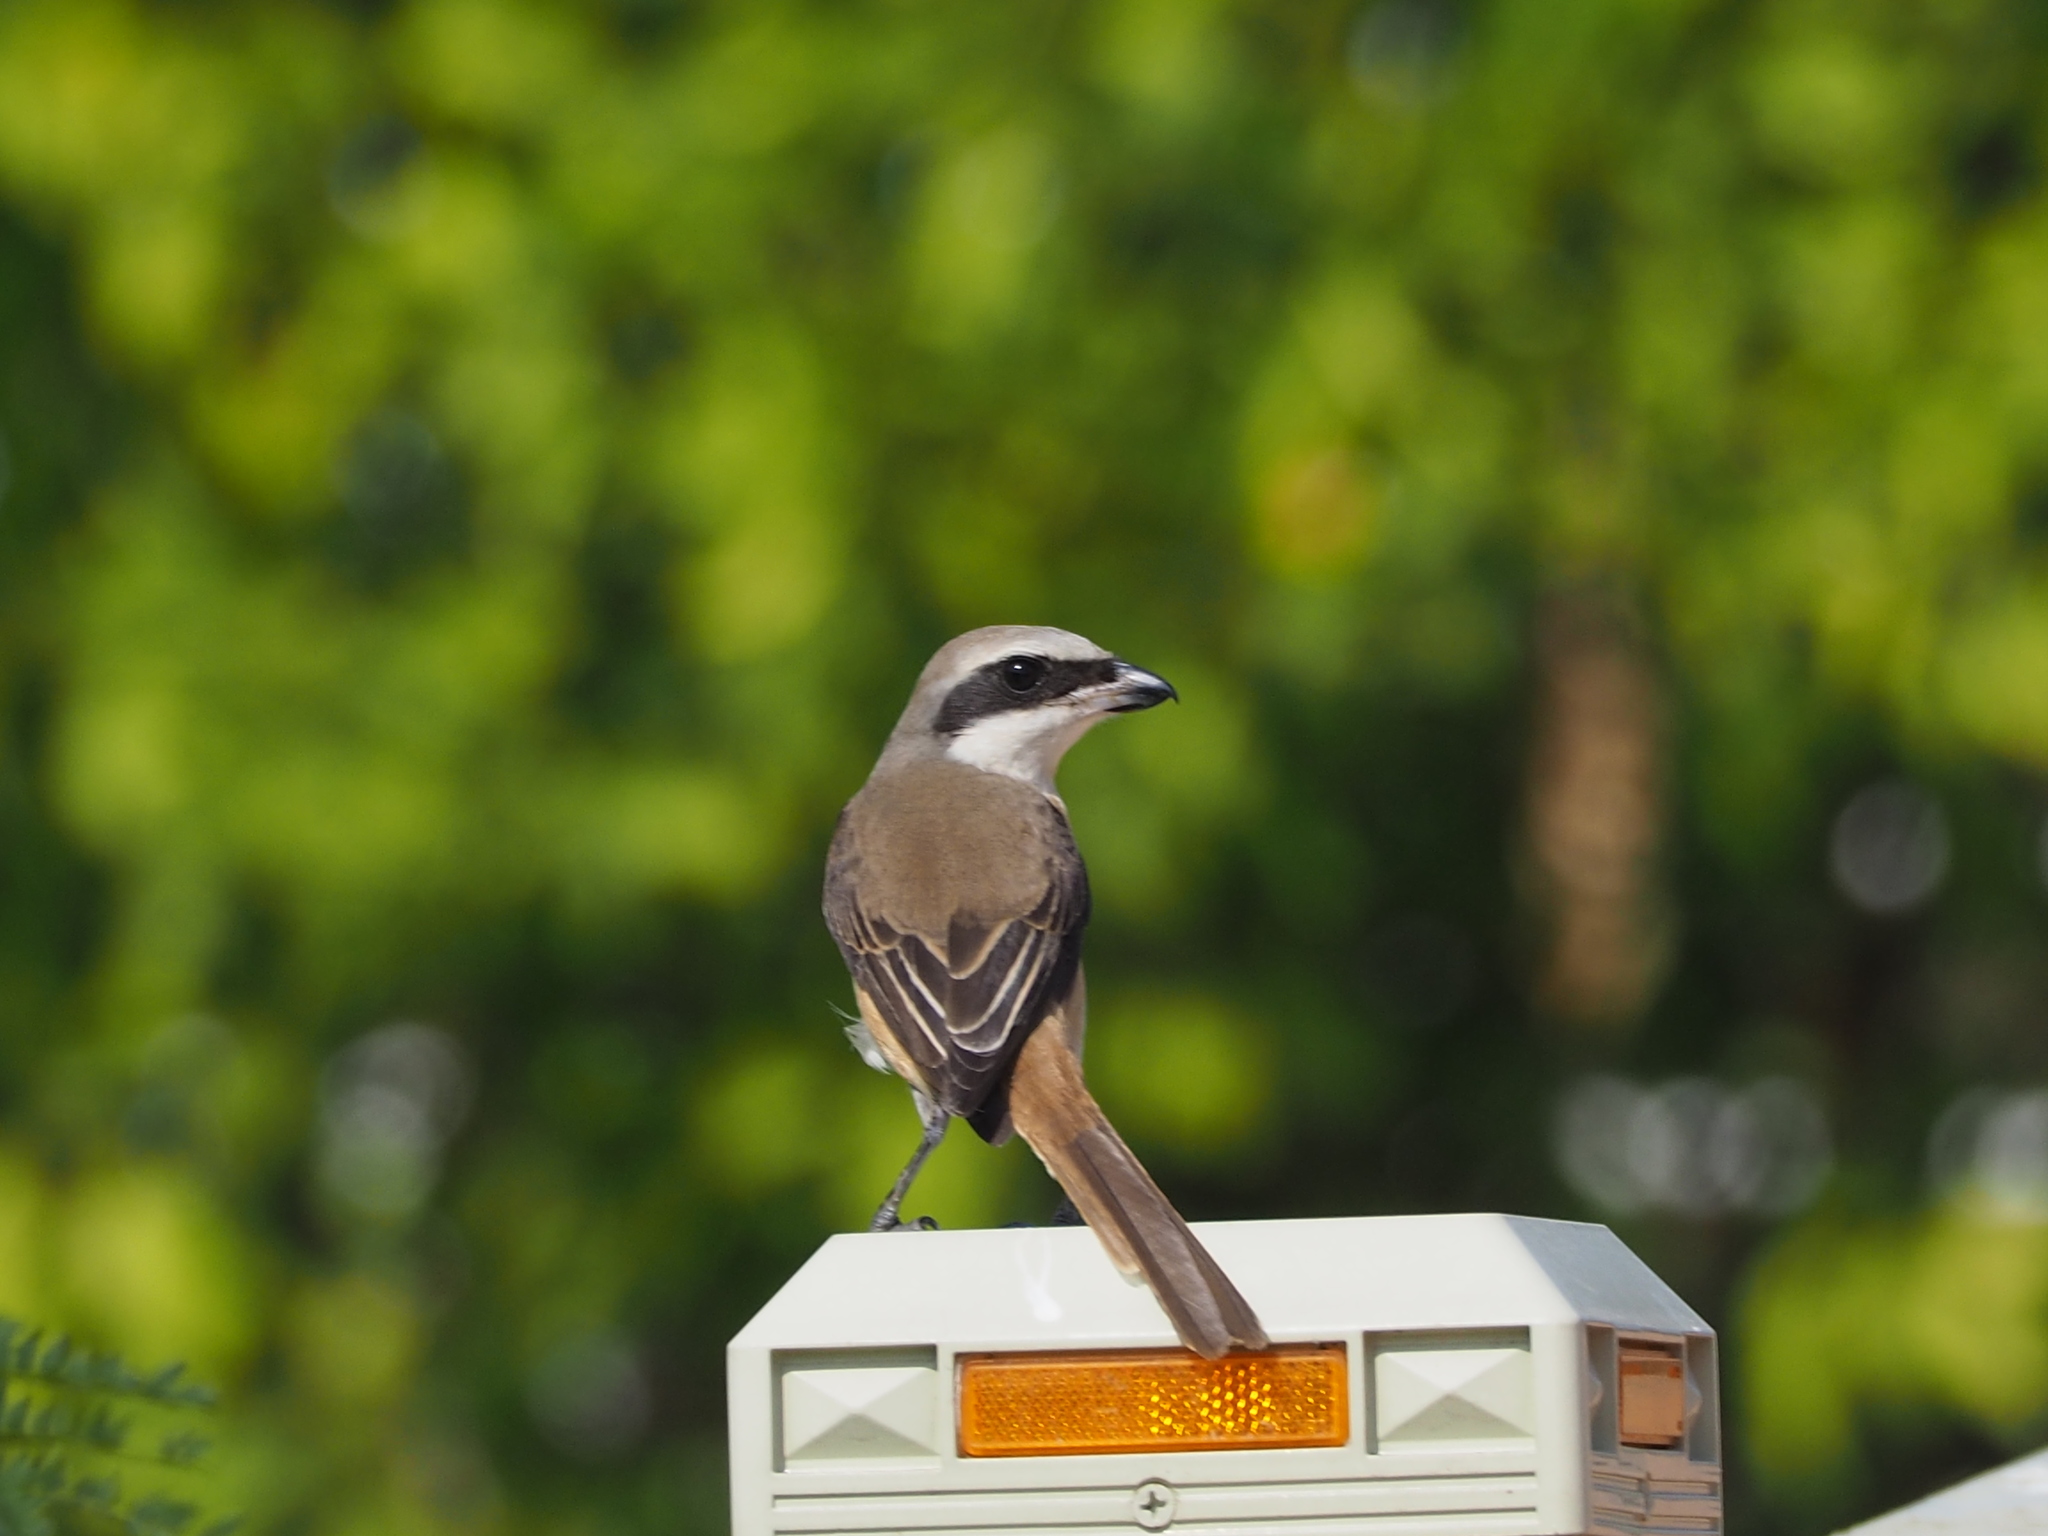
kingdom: Animalia
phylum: Chordata
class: Aves
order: Passeriformes
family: Laniidae
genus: Lanius
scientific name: Lanius cristatus
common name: Brown shrike
